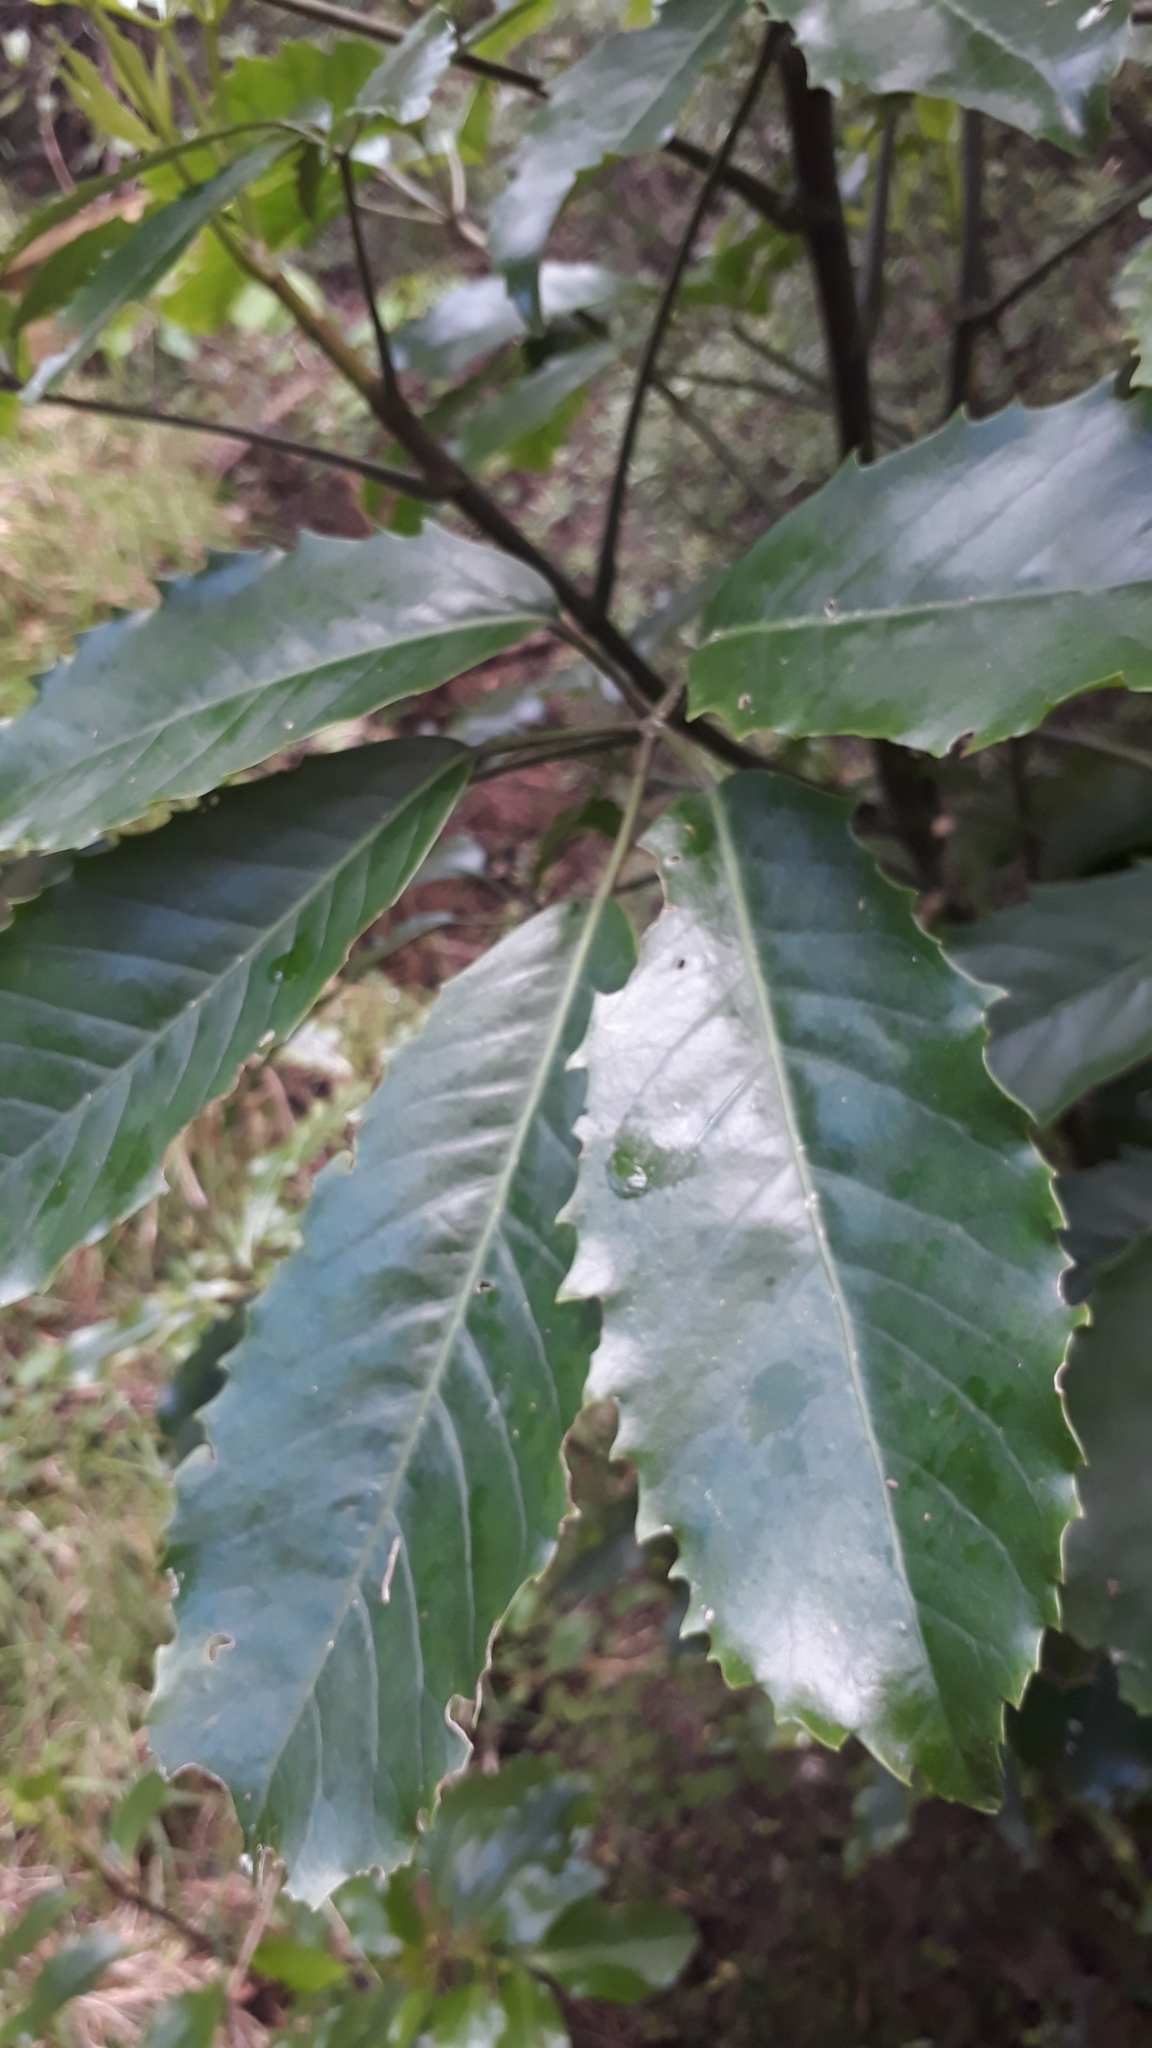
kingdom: Plantae
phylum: Tracheophyta
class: Magnoliopsida
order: Apiales
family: Araliaceae
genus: Neopanax
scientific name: Neopanax arboreus
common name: Five-fingers
